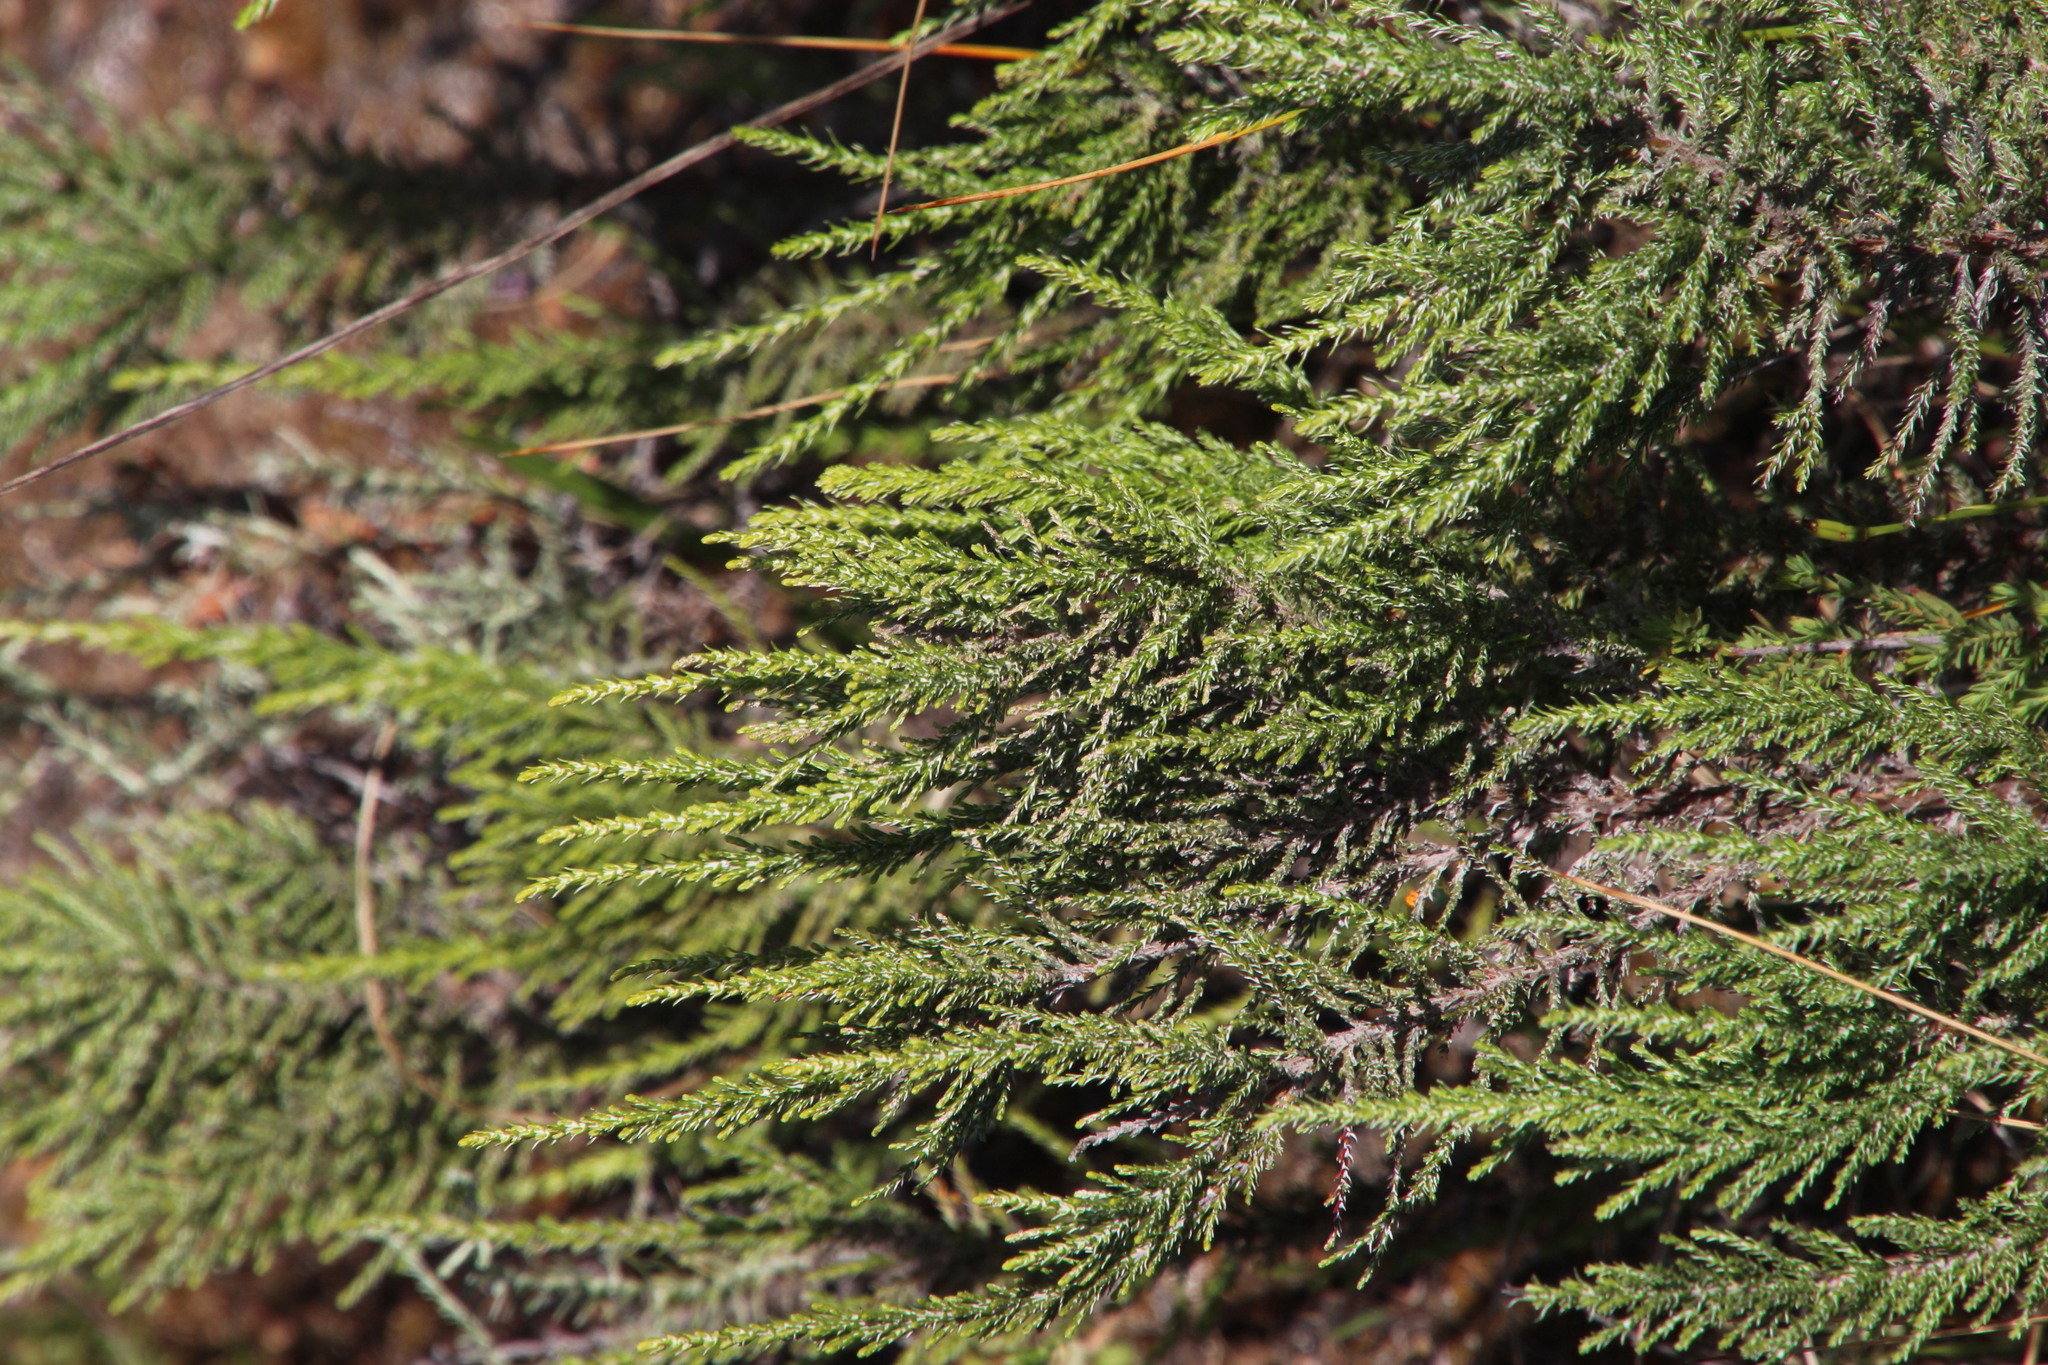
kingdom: Plantae
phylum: Tracheophyta
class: Magnoliopsida
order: Asterales
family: Asteraceae
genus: Dicerothamnus
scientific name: Dicerothamnus rhinocerotis
